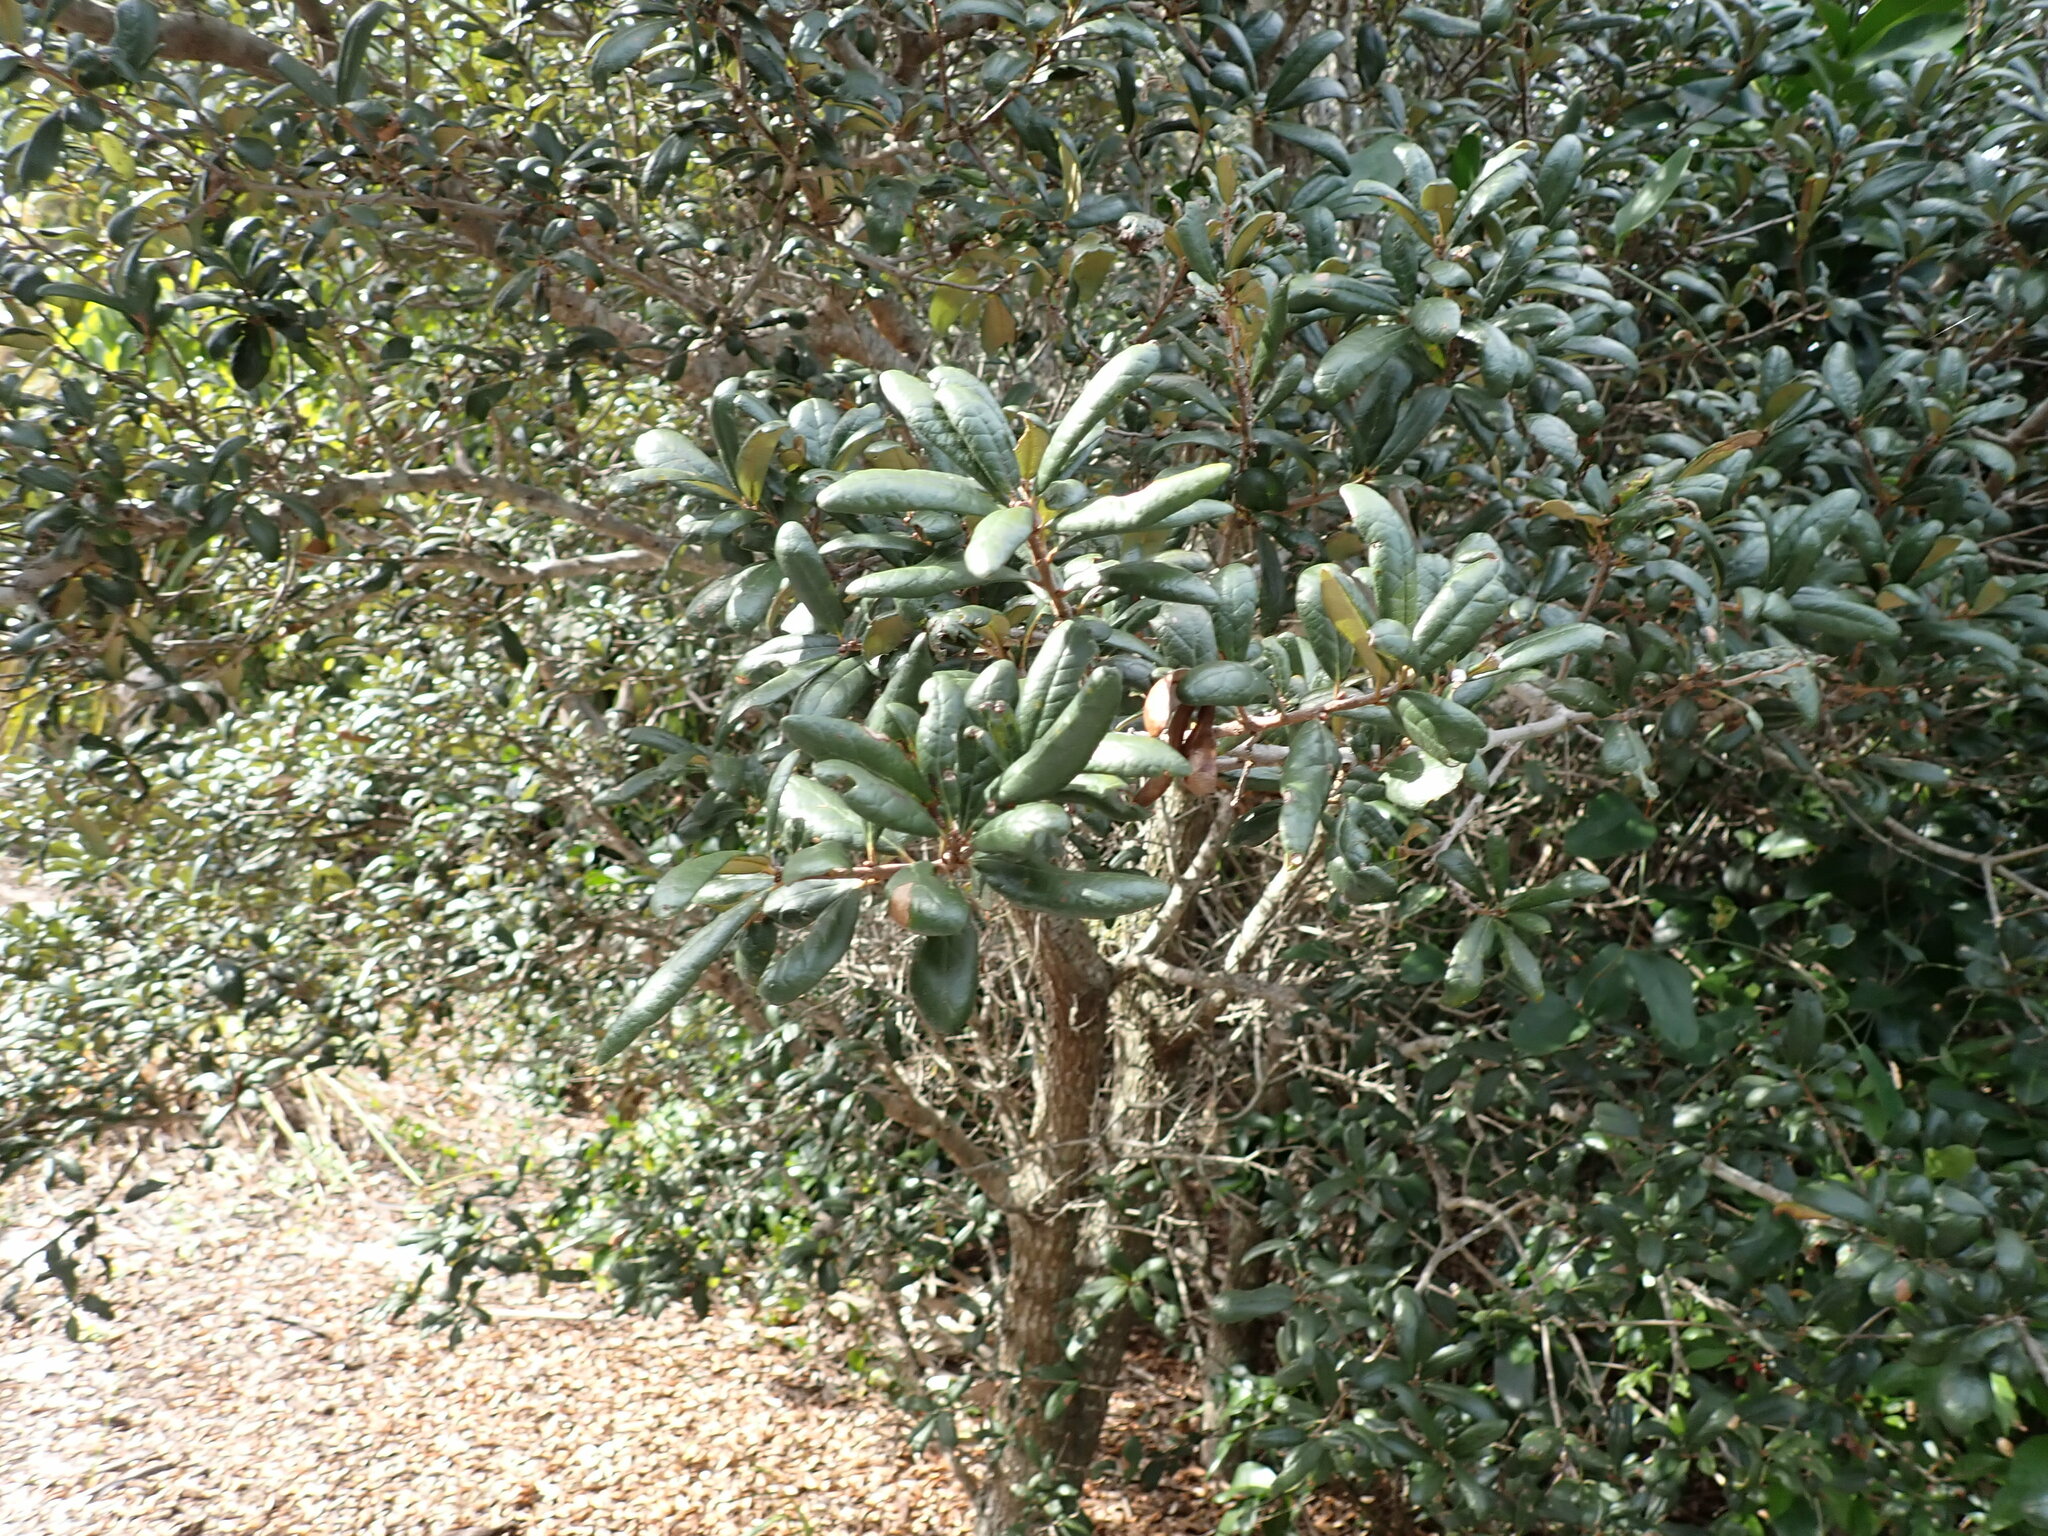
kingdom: Plantae
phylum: Tracheophyta
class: Magnoliopsida
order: Fagales
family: Fagaceae
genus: Quercus
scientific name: Quercus geminata
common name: Sand live oak
